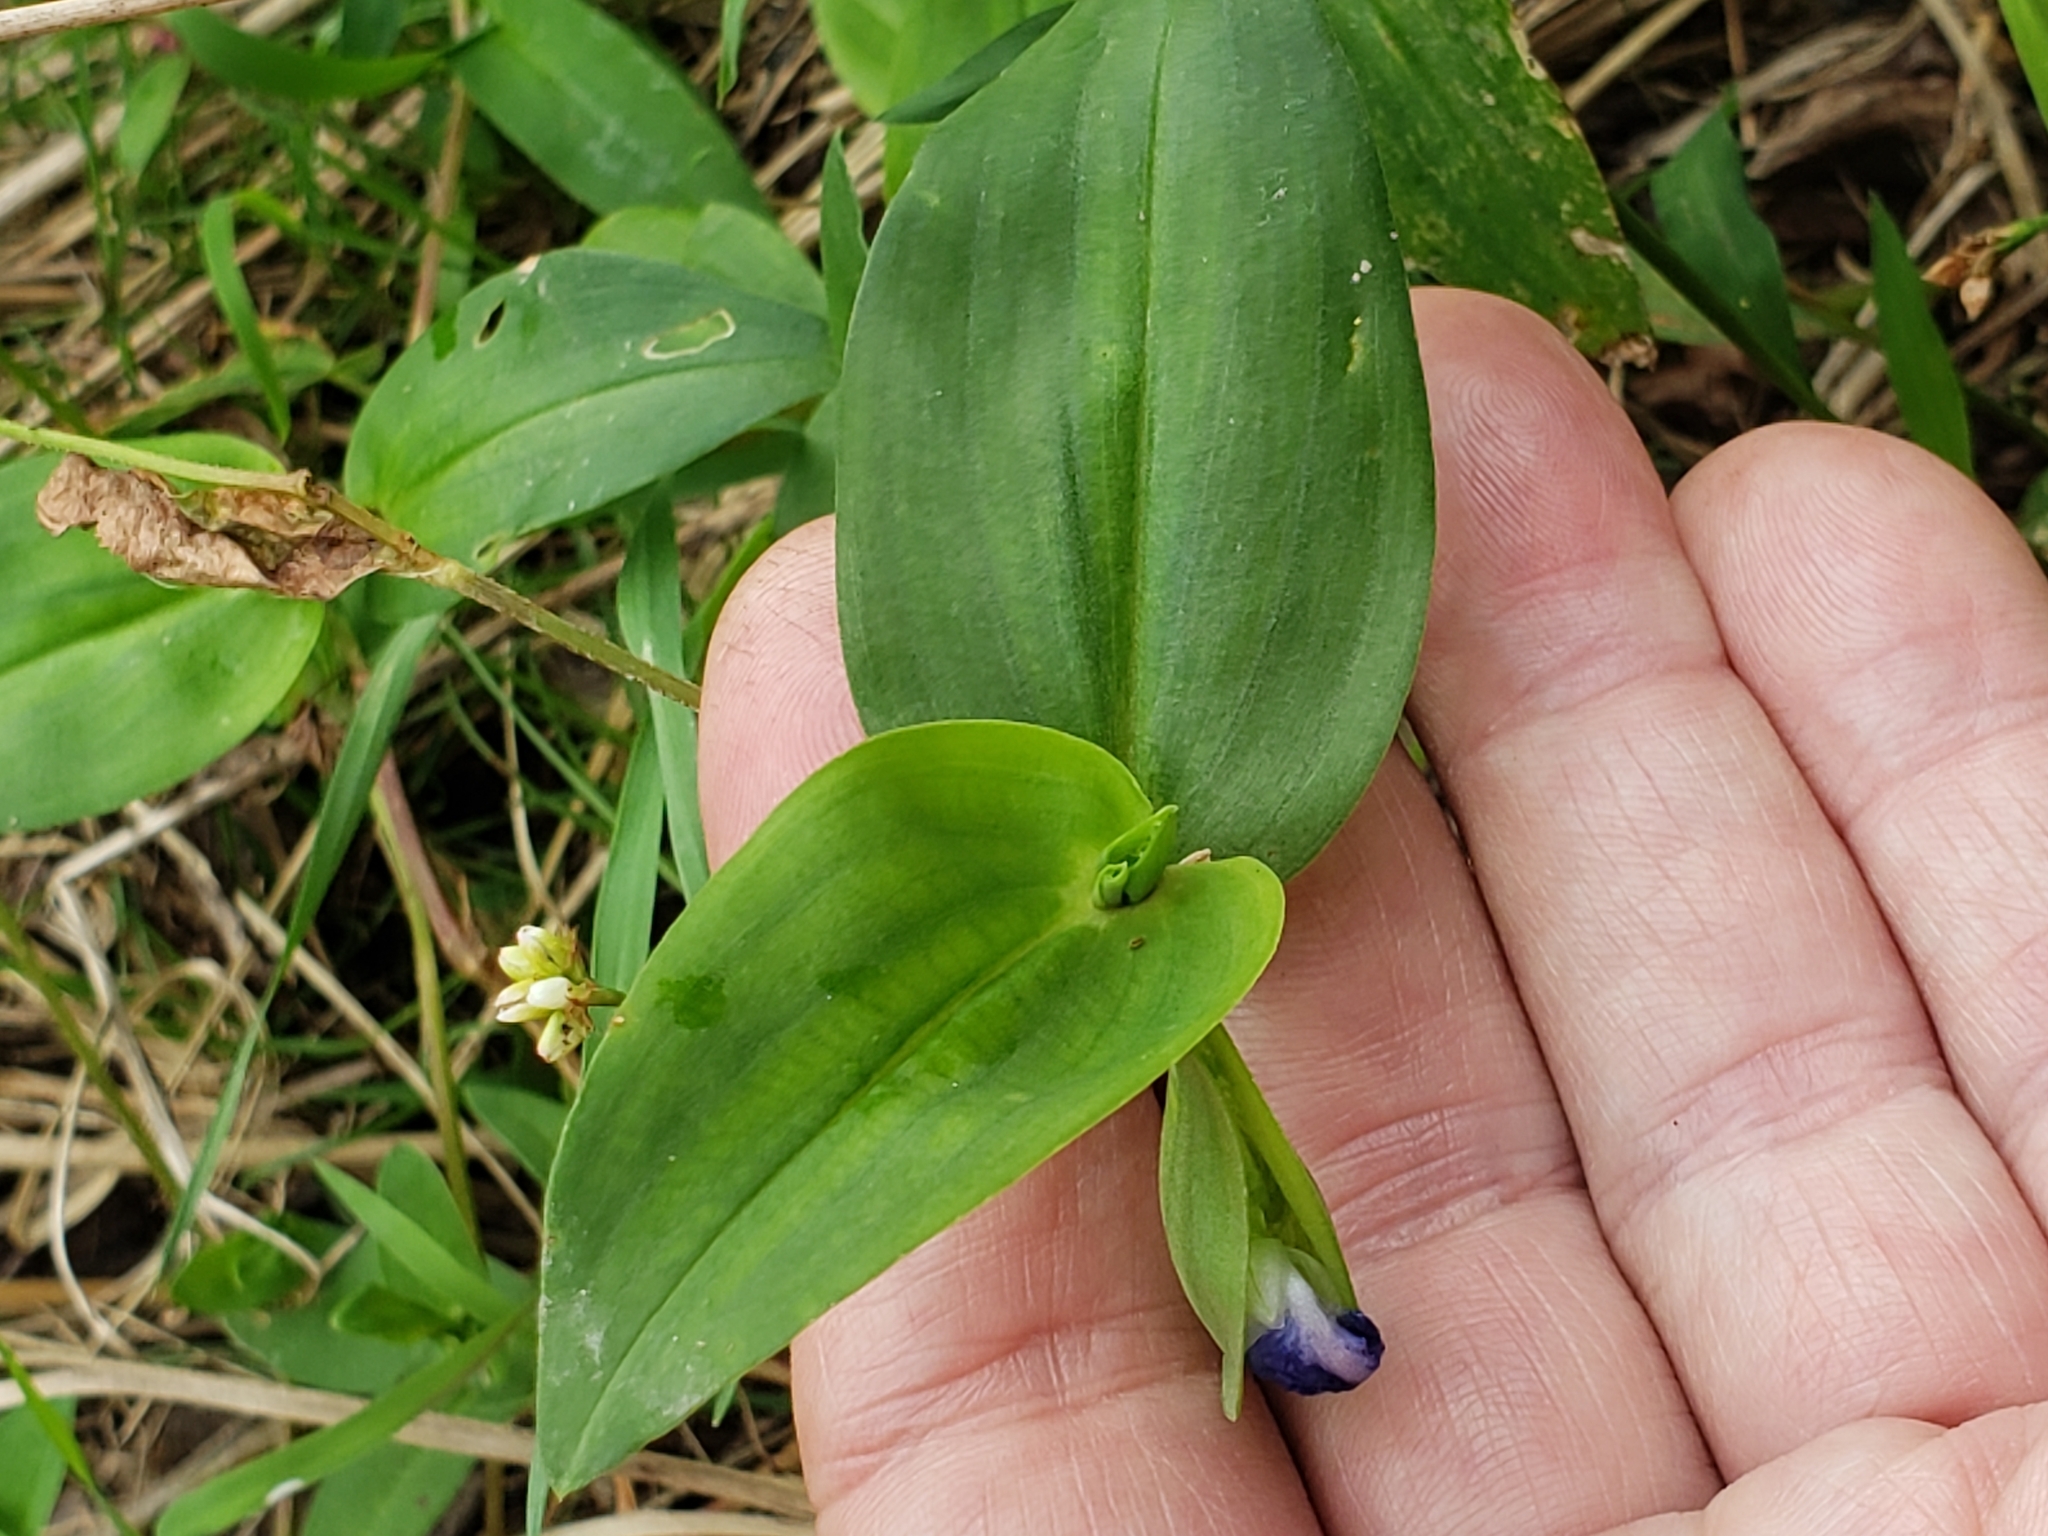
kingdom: Plantae
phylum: Tracheophyta
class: Liliopsida
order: Commelinales
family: Commelinaceae
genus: Commelina
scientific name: Commelina communis
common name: Asiatic dayflower
